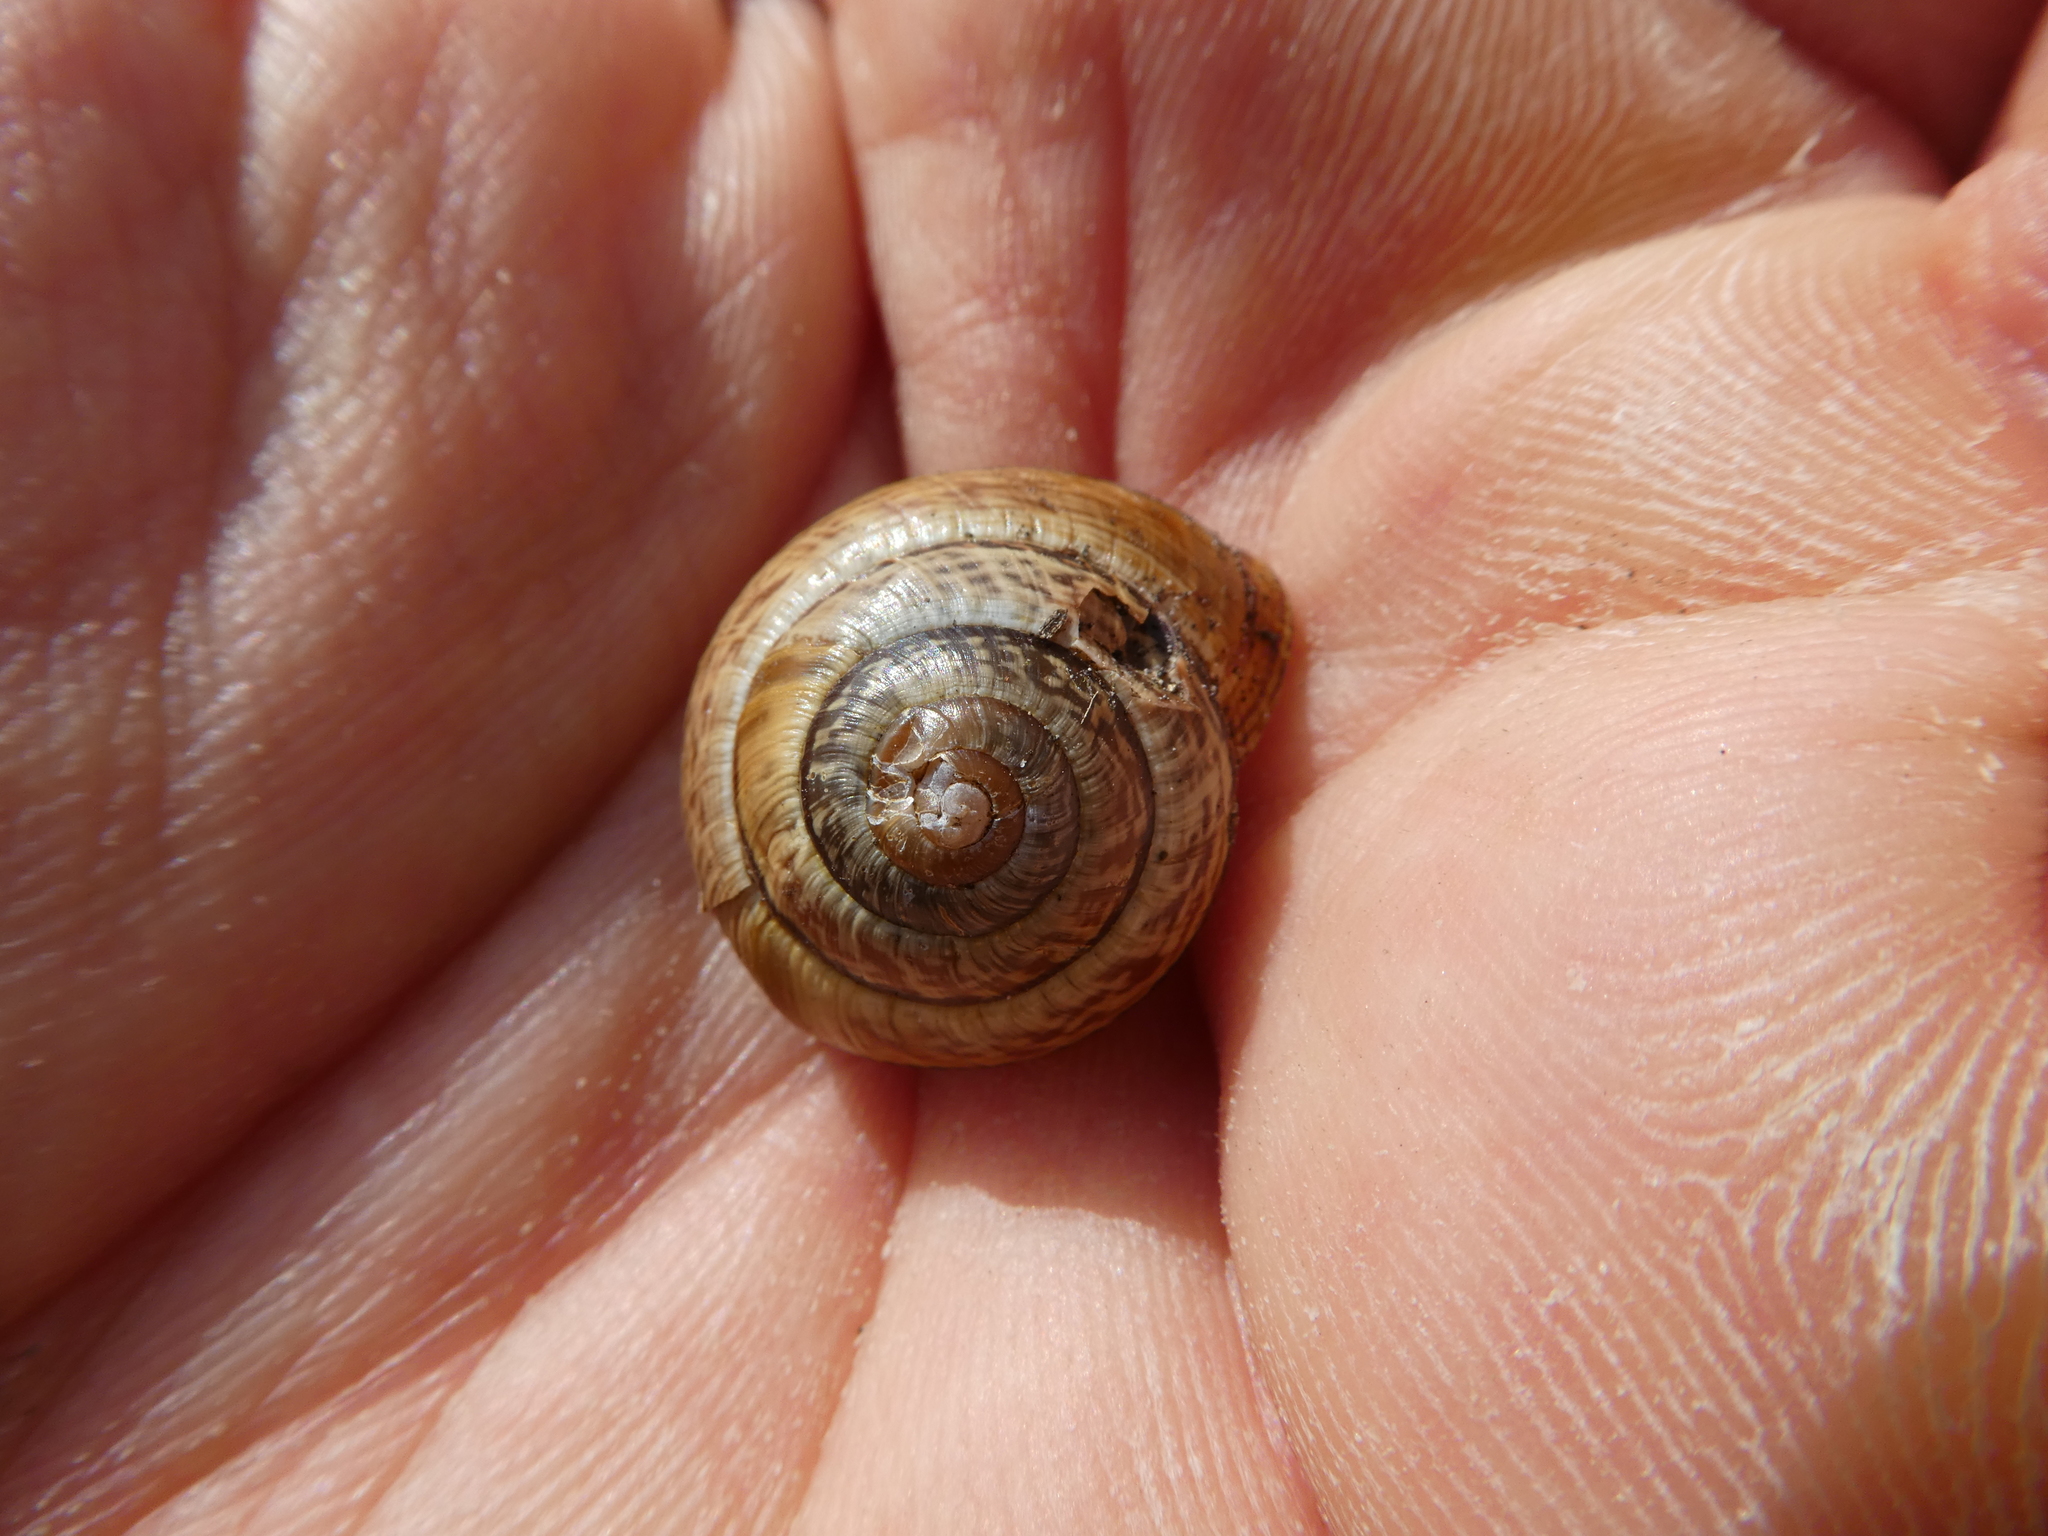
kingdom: Animalia
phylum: Mollusca
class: Gastropoda
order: Stylommatophora
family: Helicidae
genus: Arianta
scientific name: Arianta arbustorum
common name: Copse snail
